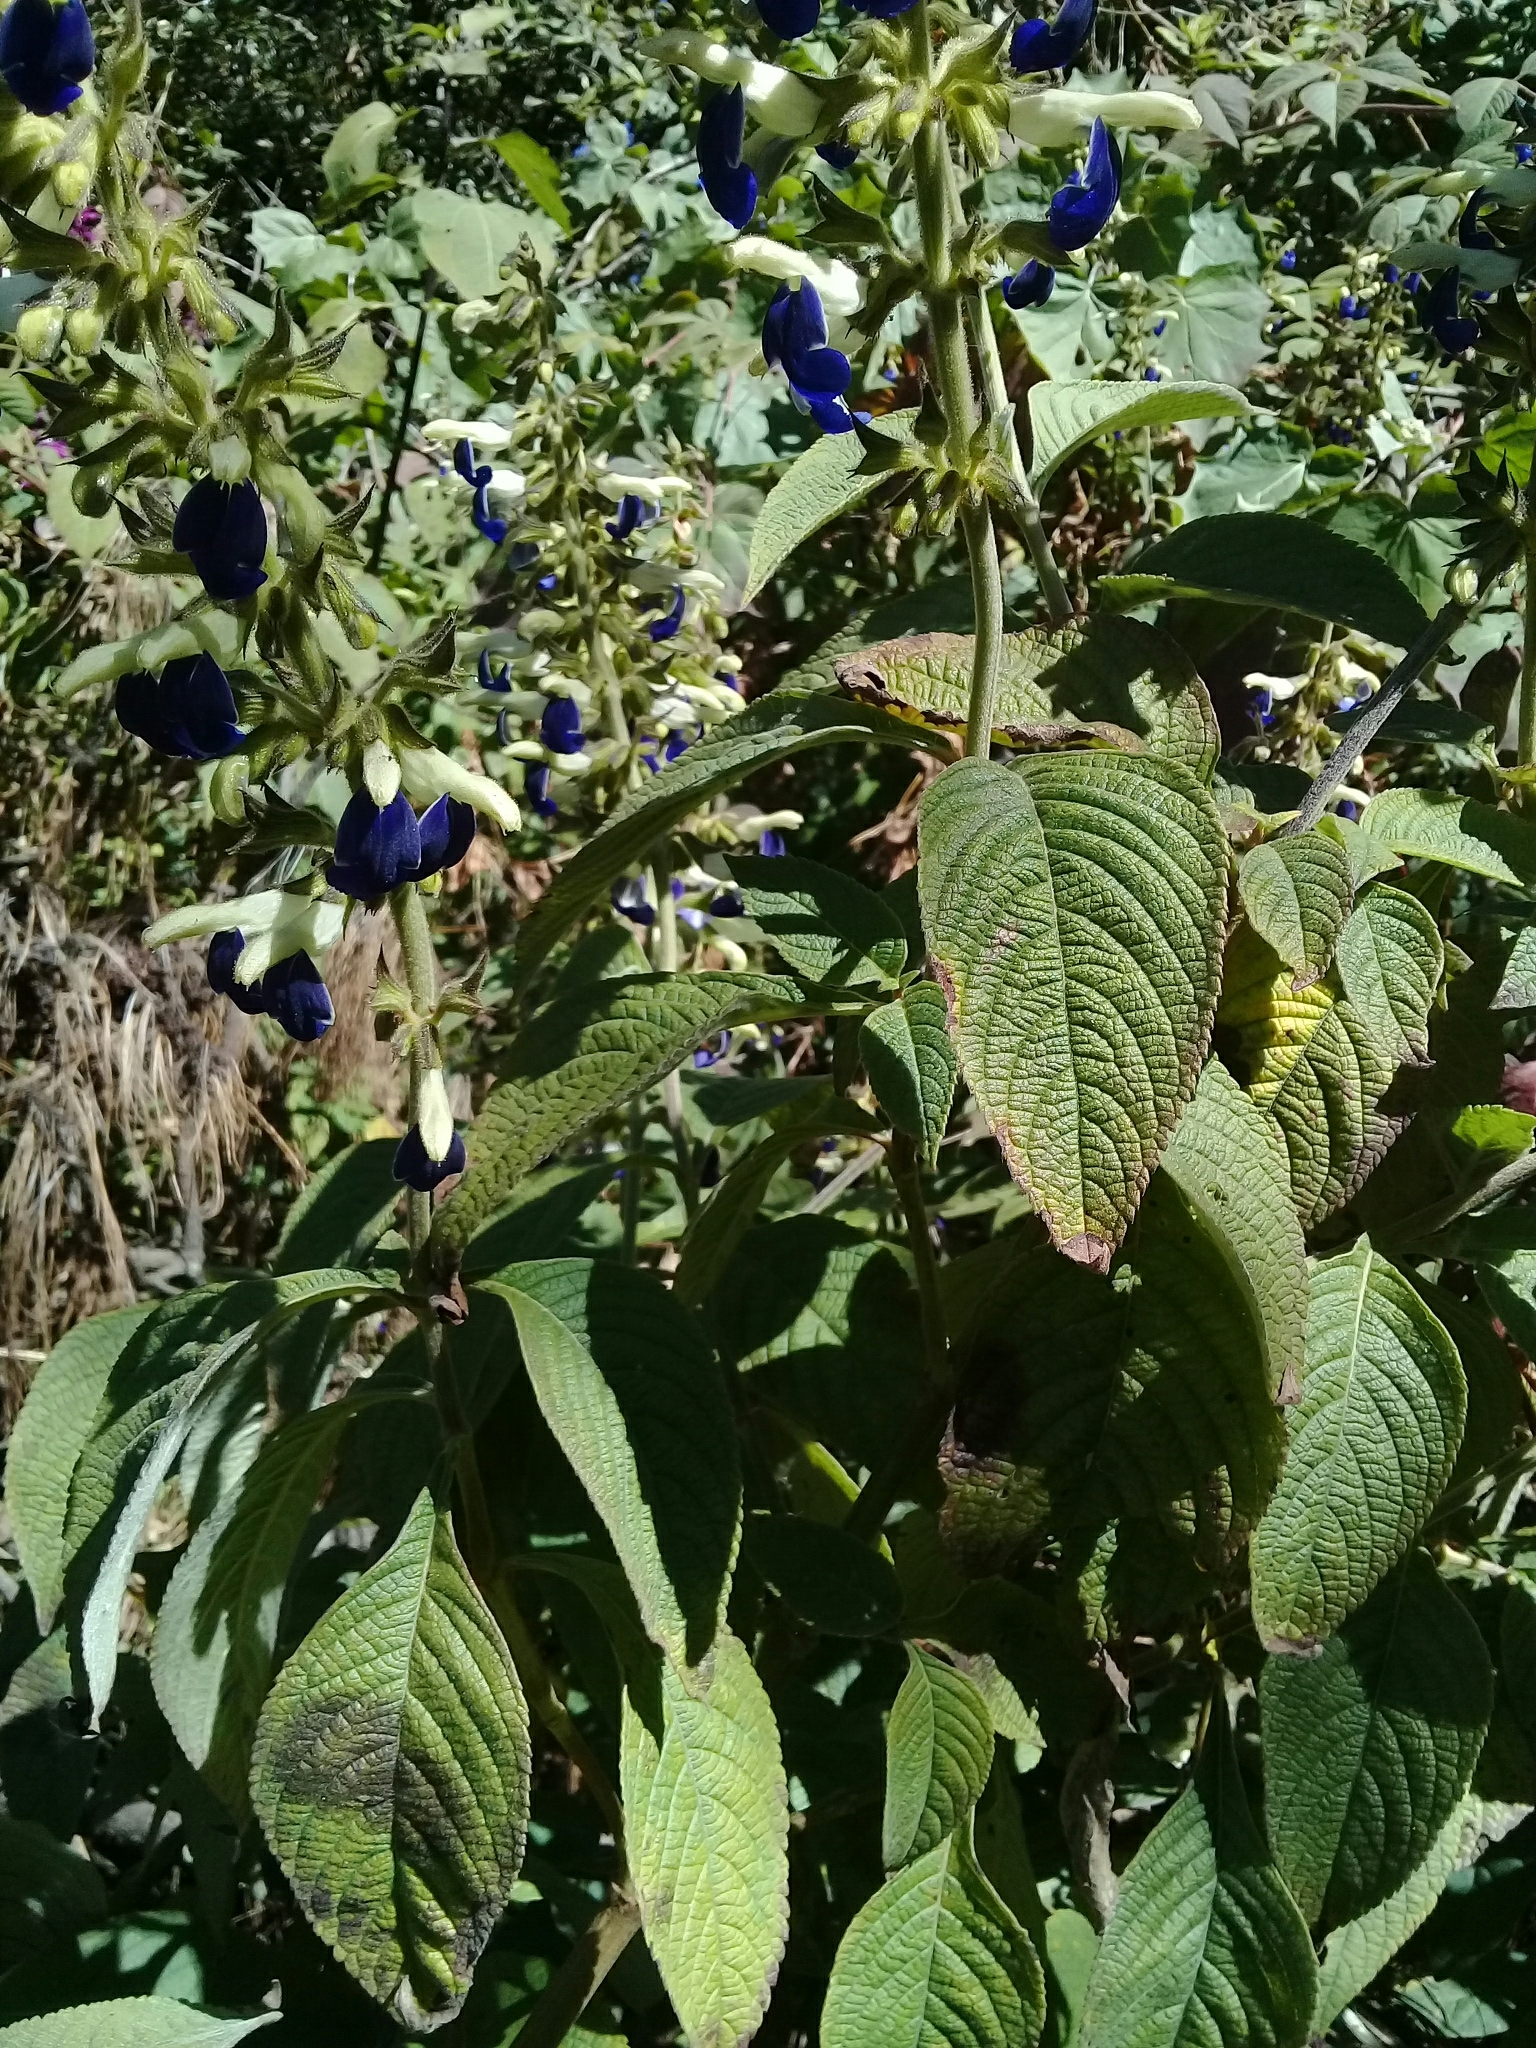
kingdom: Plantae
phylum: Tracheophyta
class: Magnoliopsida
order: Lamiales
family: Lamiaceae
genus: Salvia
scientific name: Salvia albocaerulea
